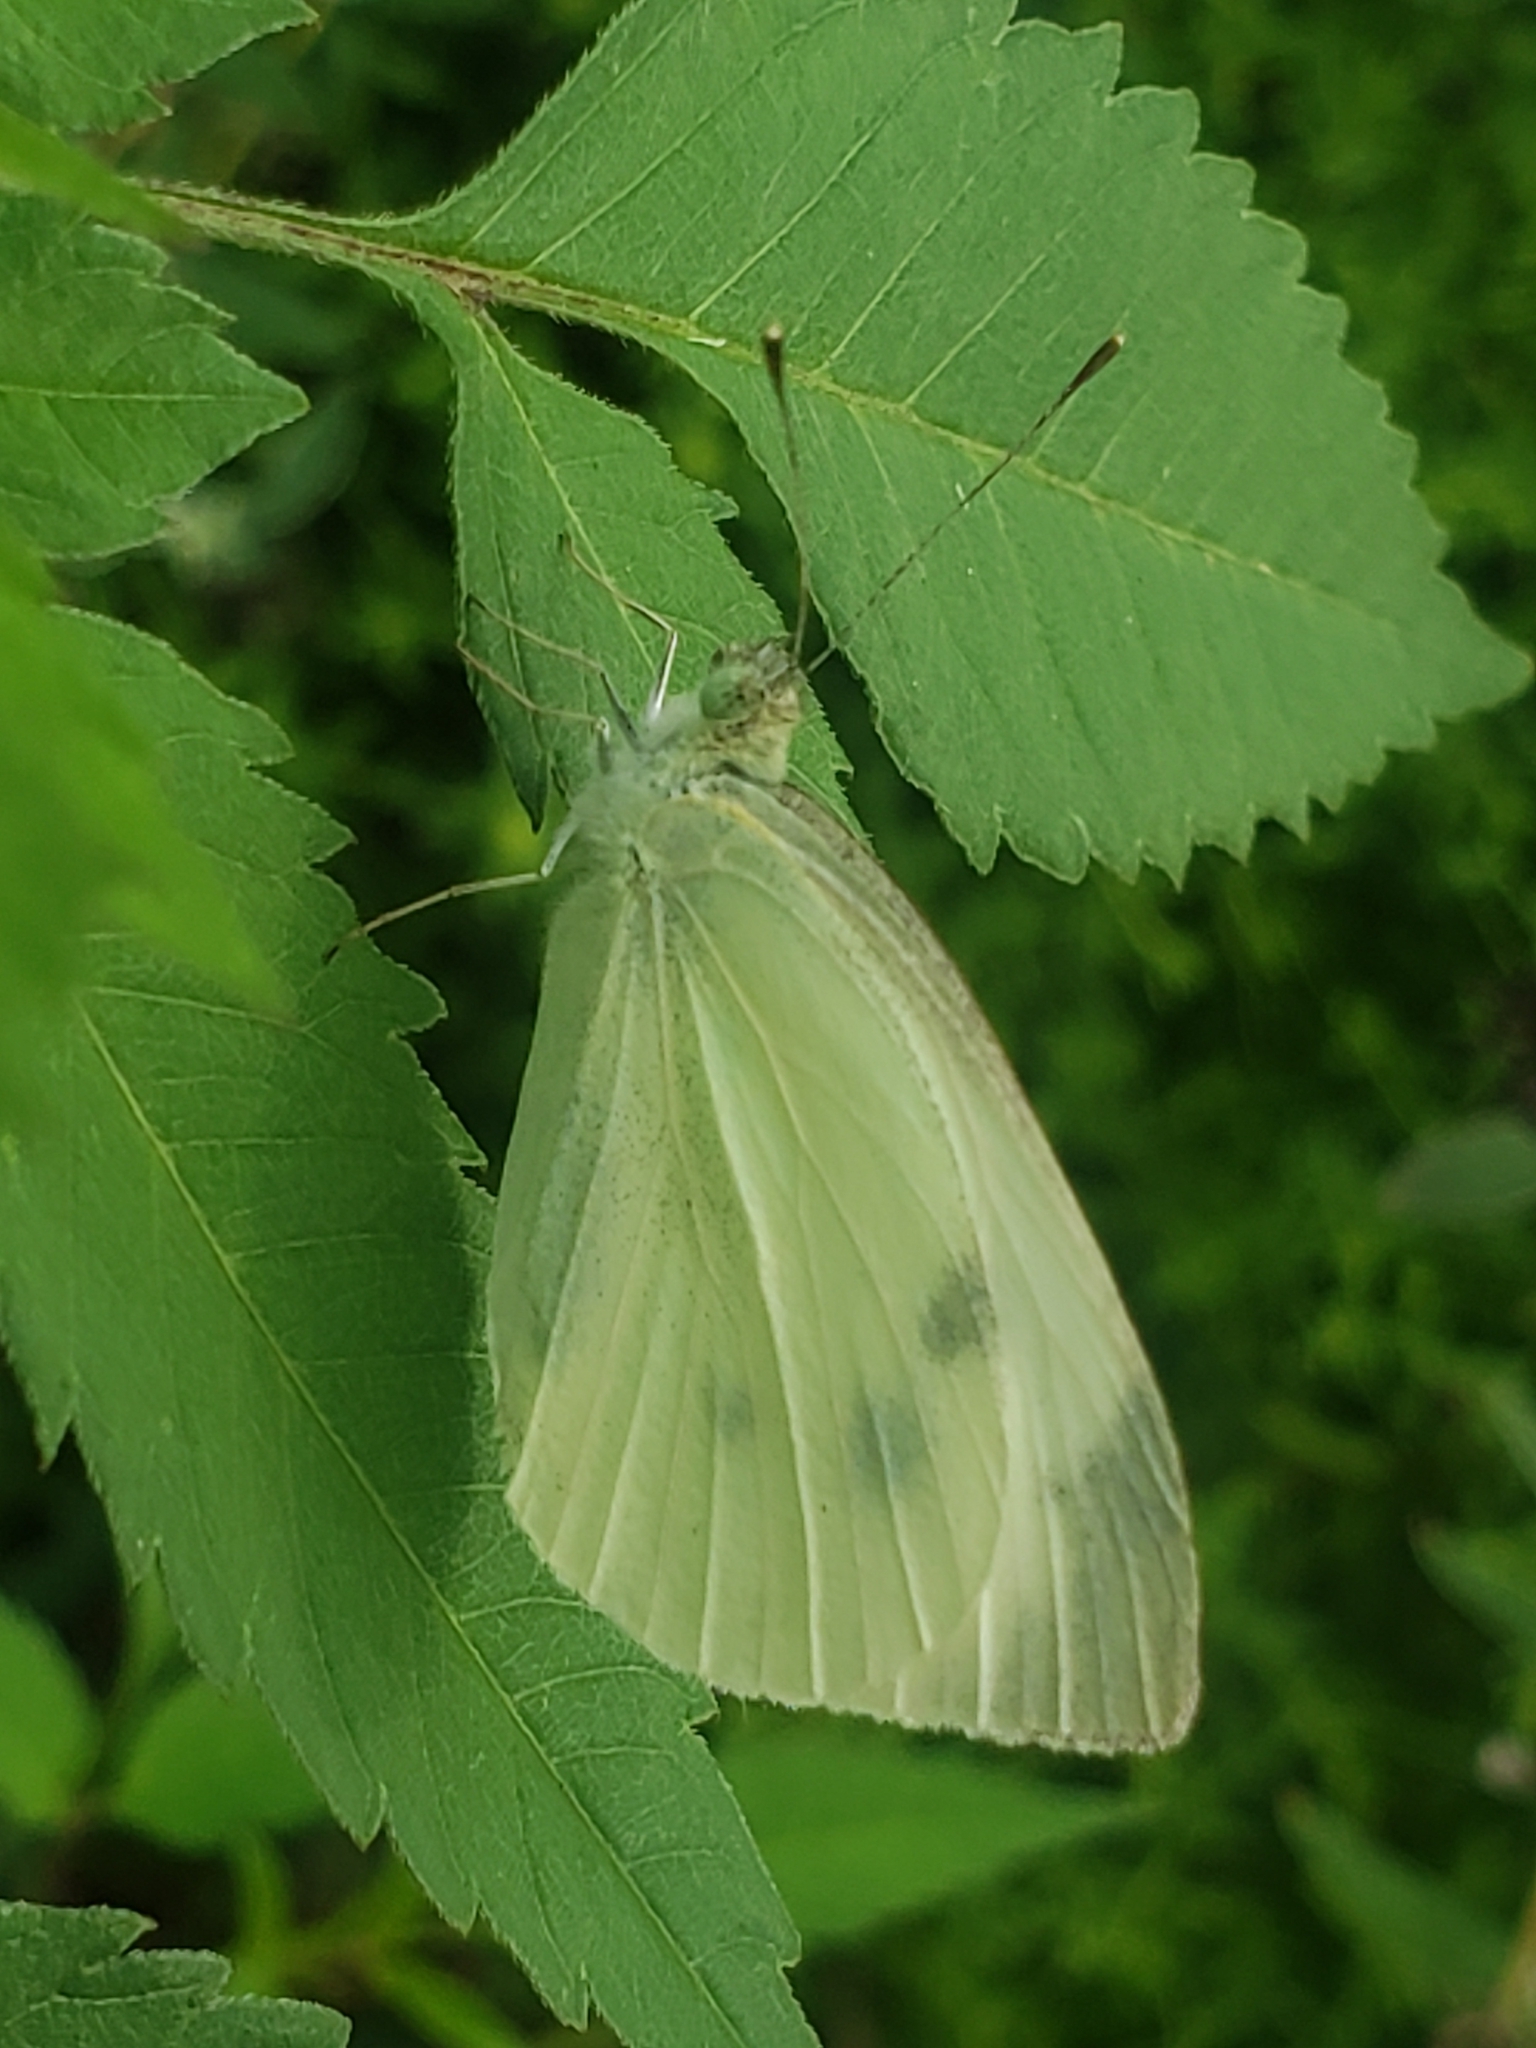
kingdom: Animalia
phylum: Arthropoda
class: Insecta
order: Lepidoptera
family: Pieridae
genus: Pieris
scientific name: Pieris rapae
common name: Small white
